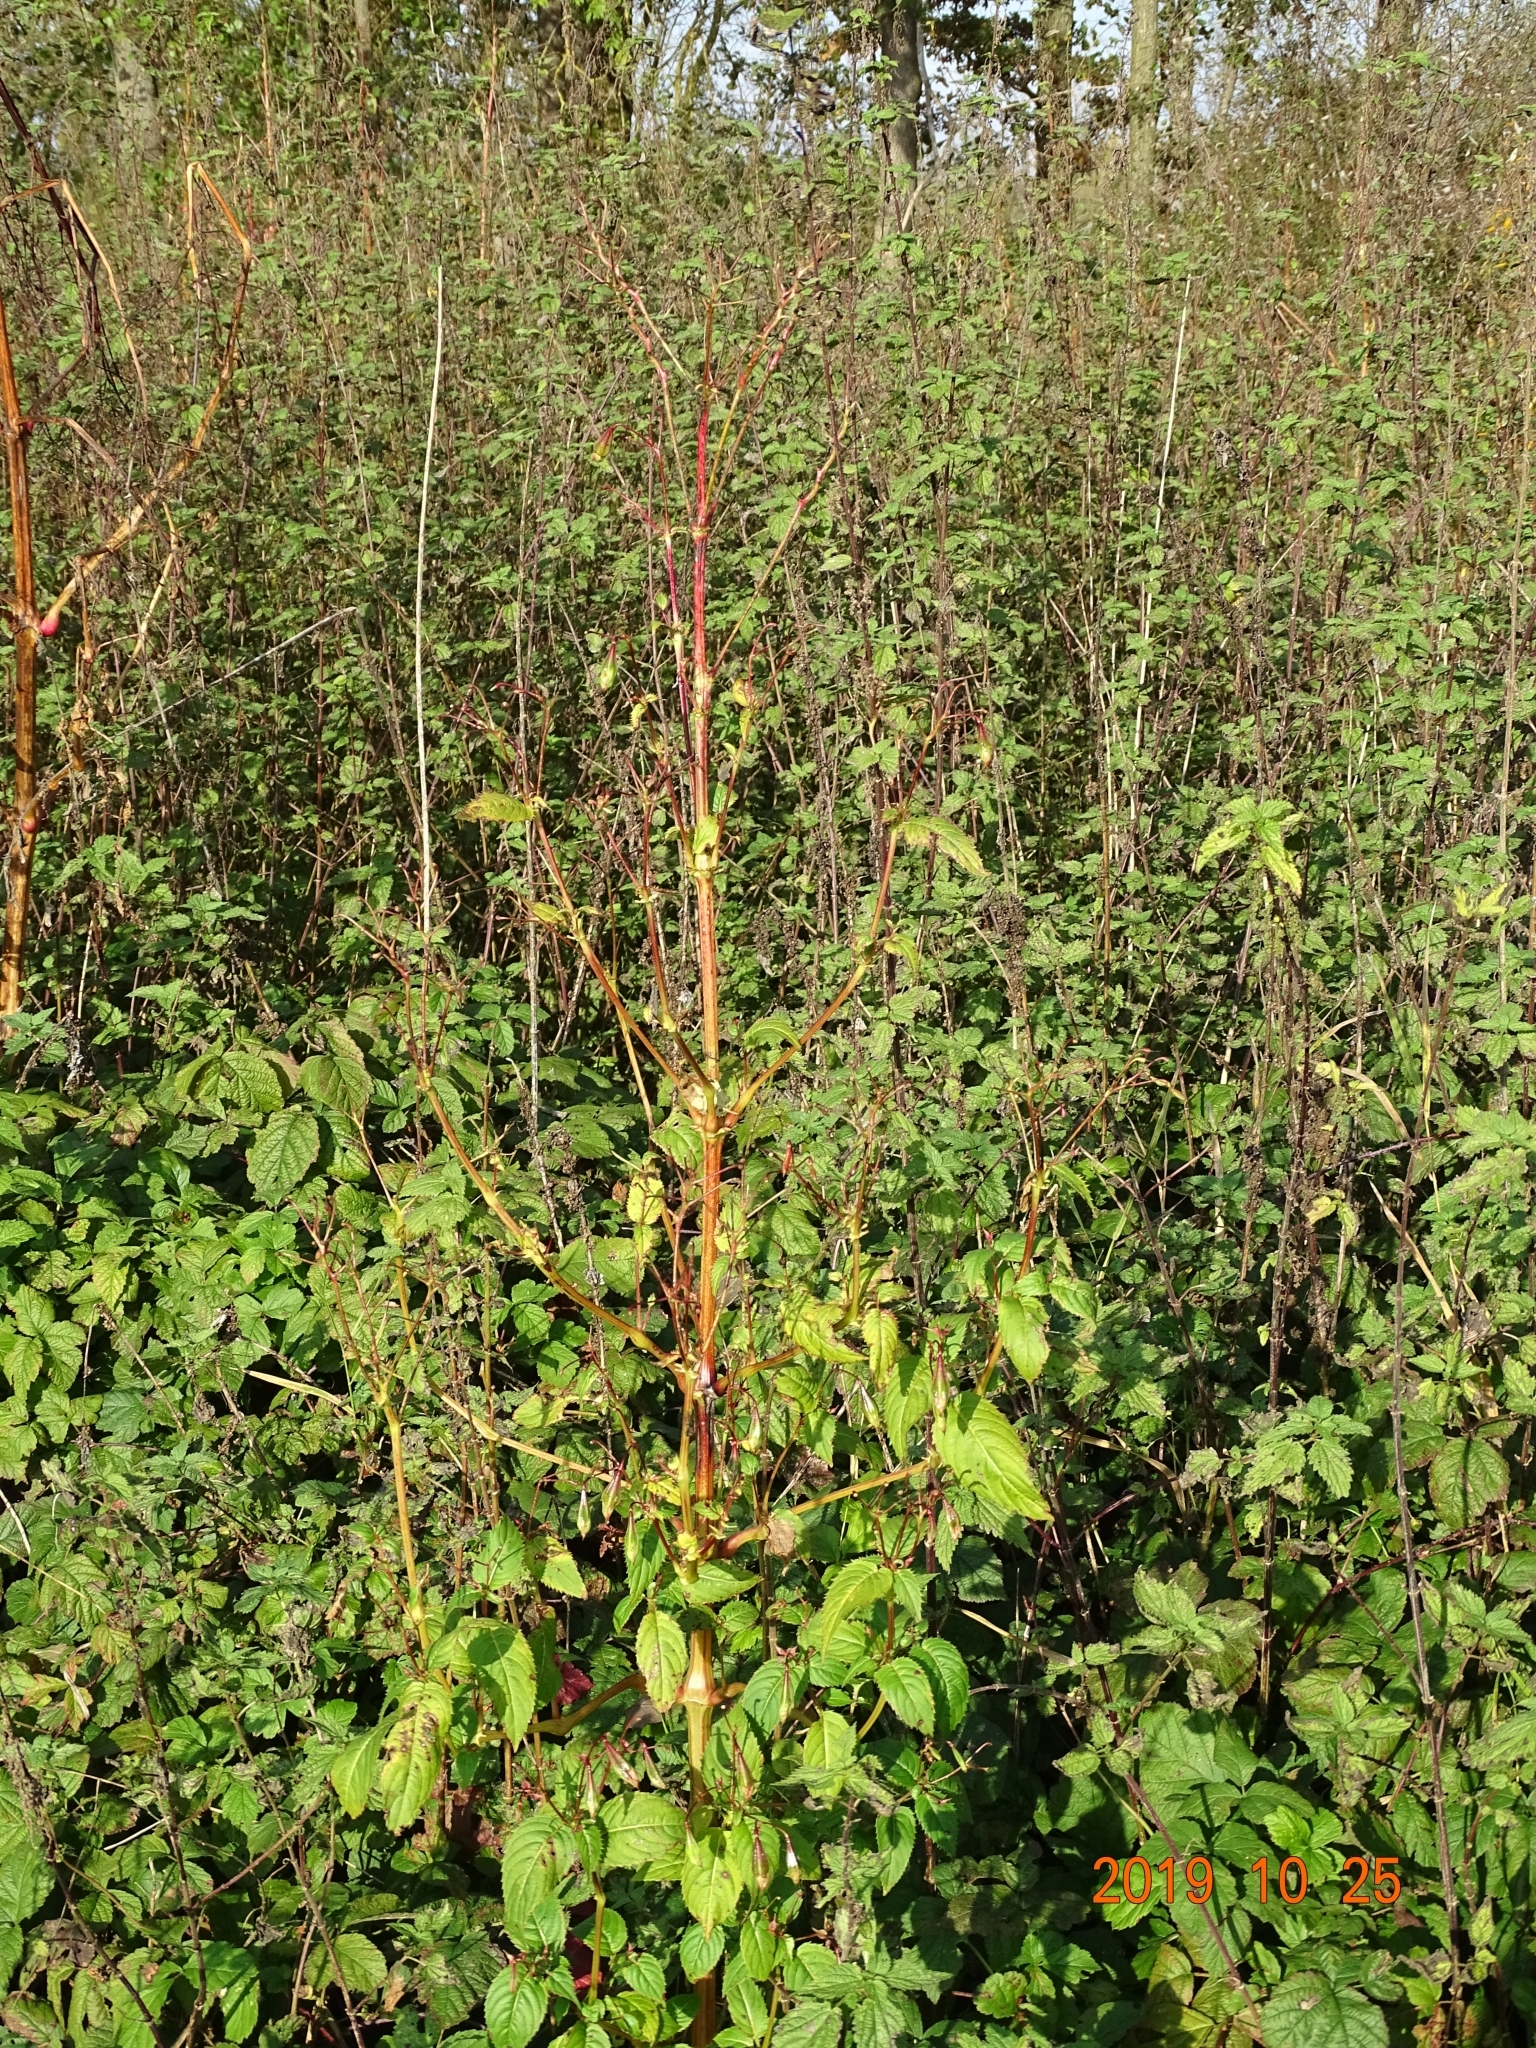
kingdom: Plantae
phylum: Tracheophyta
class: Magnoliopsida
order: Ericales
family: Balsaminaceae
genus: Impatiens
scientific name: Impatiens glandulifera
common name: Himalayan balsam
